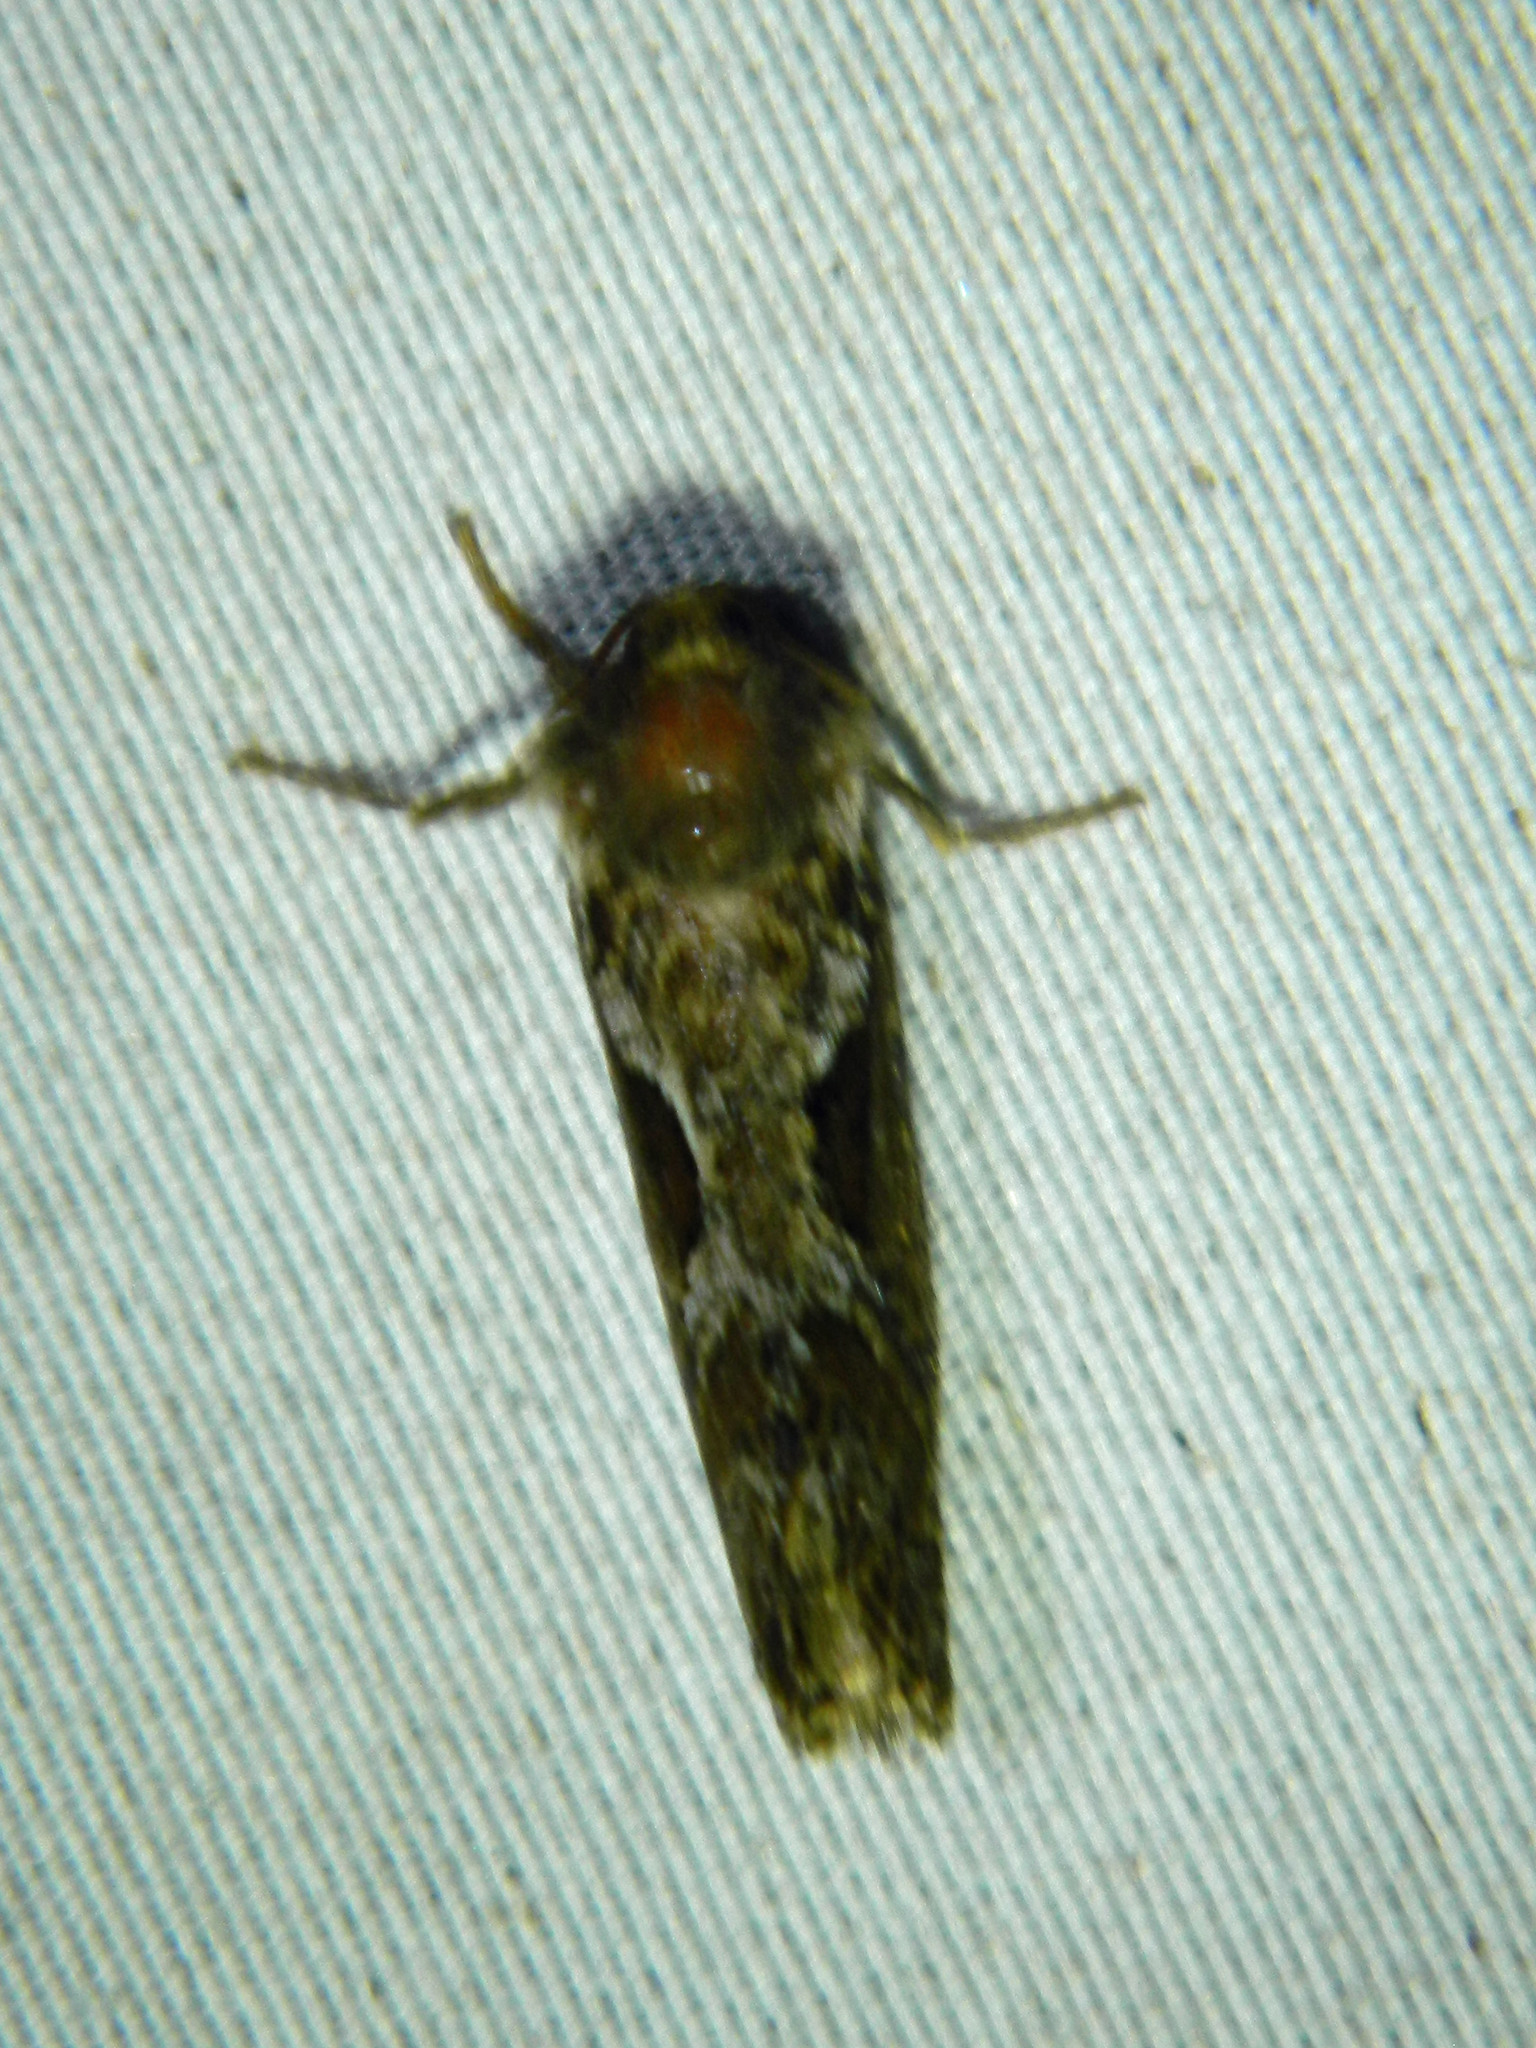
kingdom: Animalia
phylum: Arthropoda
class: Insecta
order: Lepidoptera
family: Hepialidae
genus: Korscheltellus
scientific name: Korscheltellus gracilis
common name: Conifer swift moth
